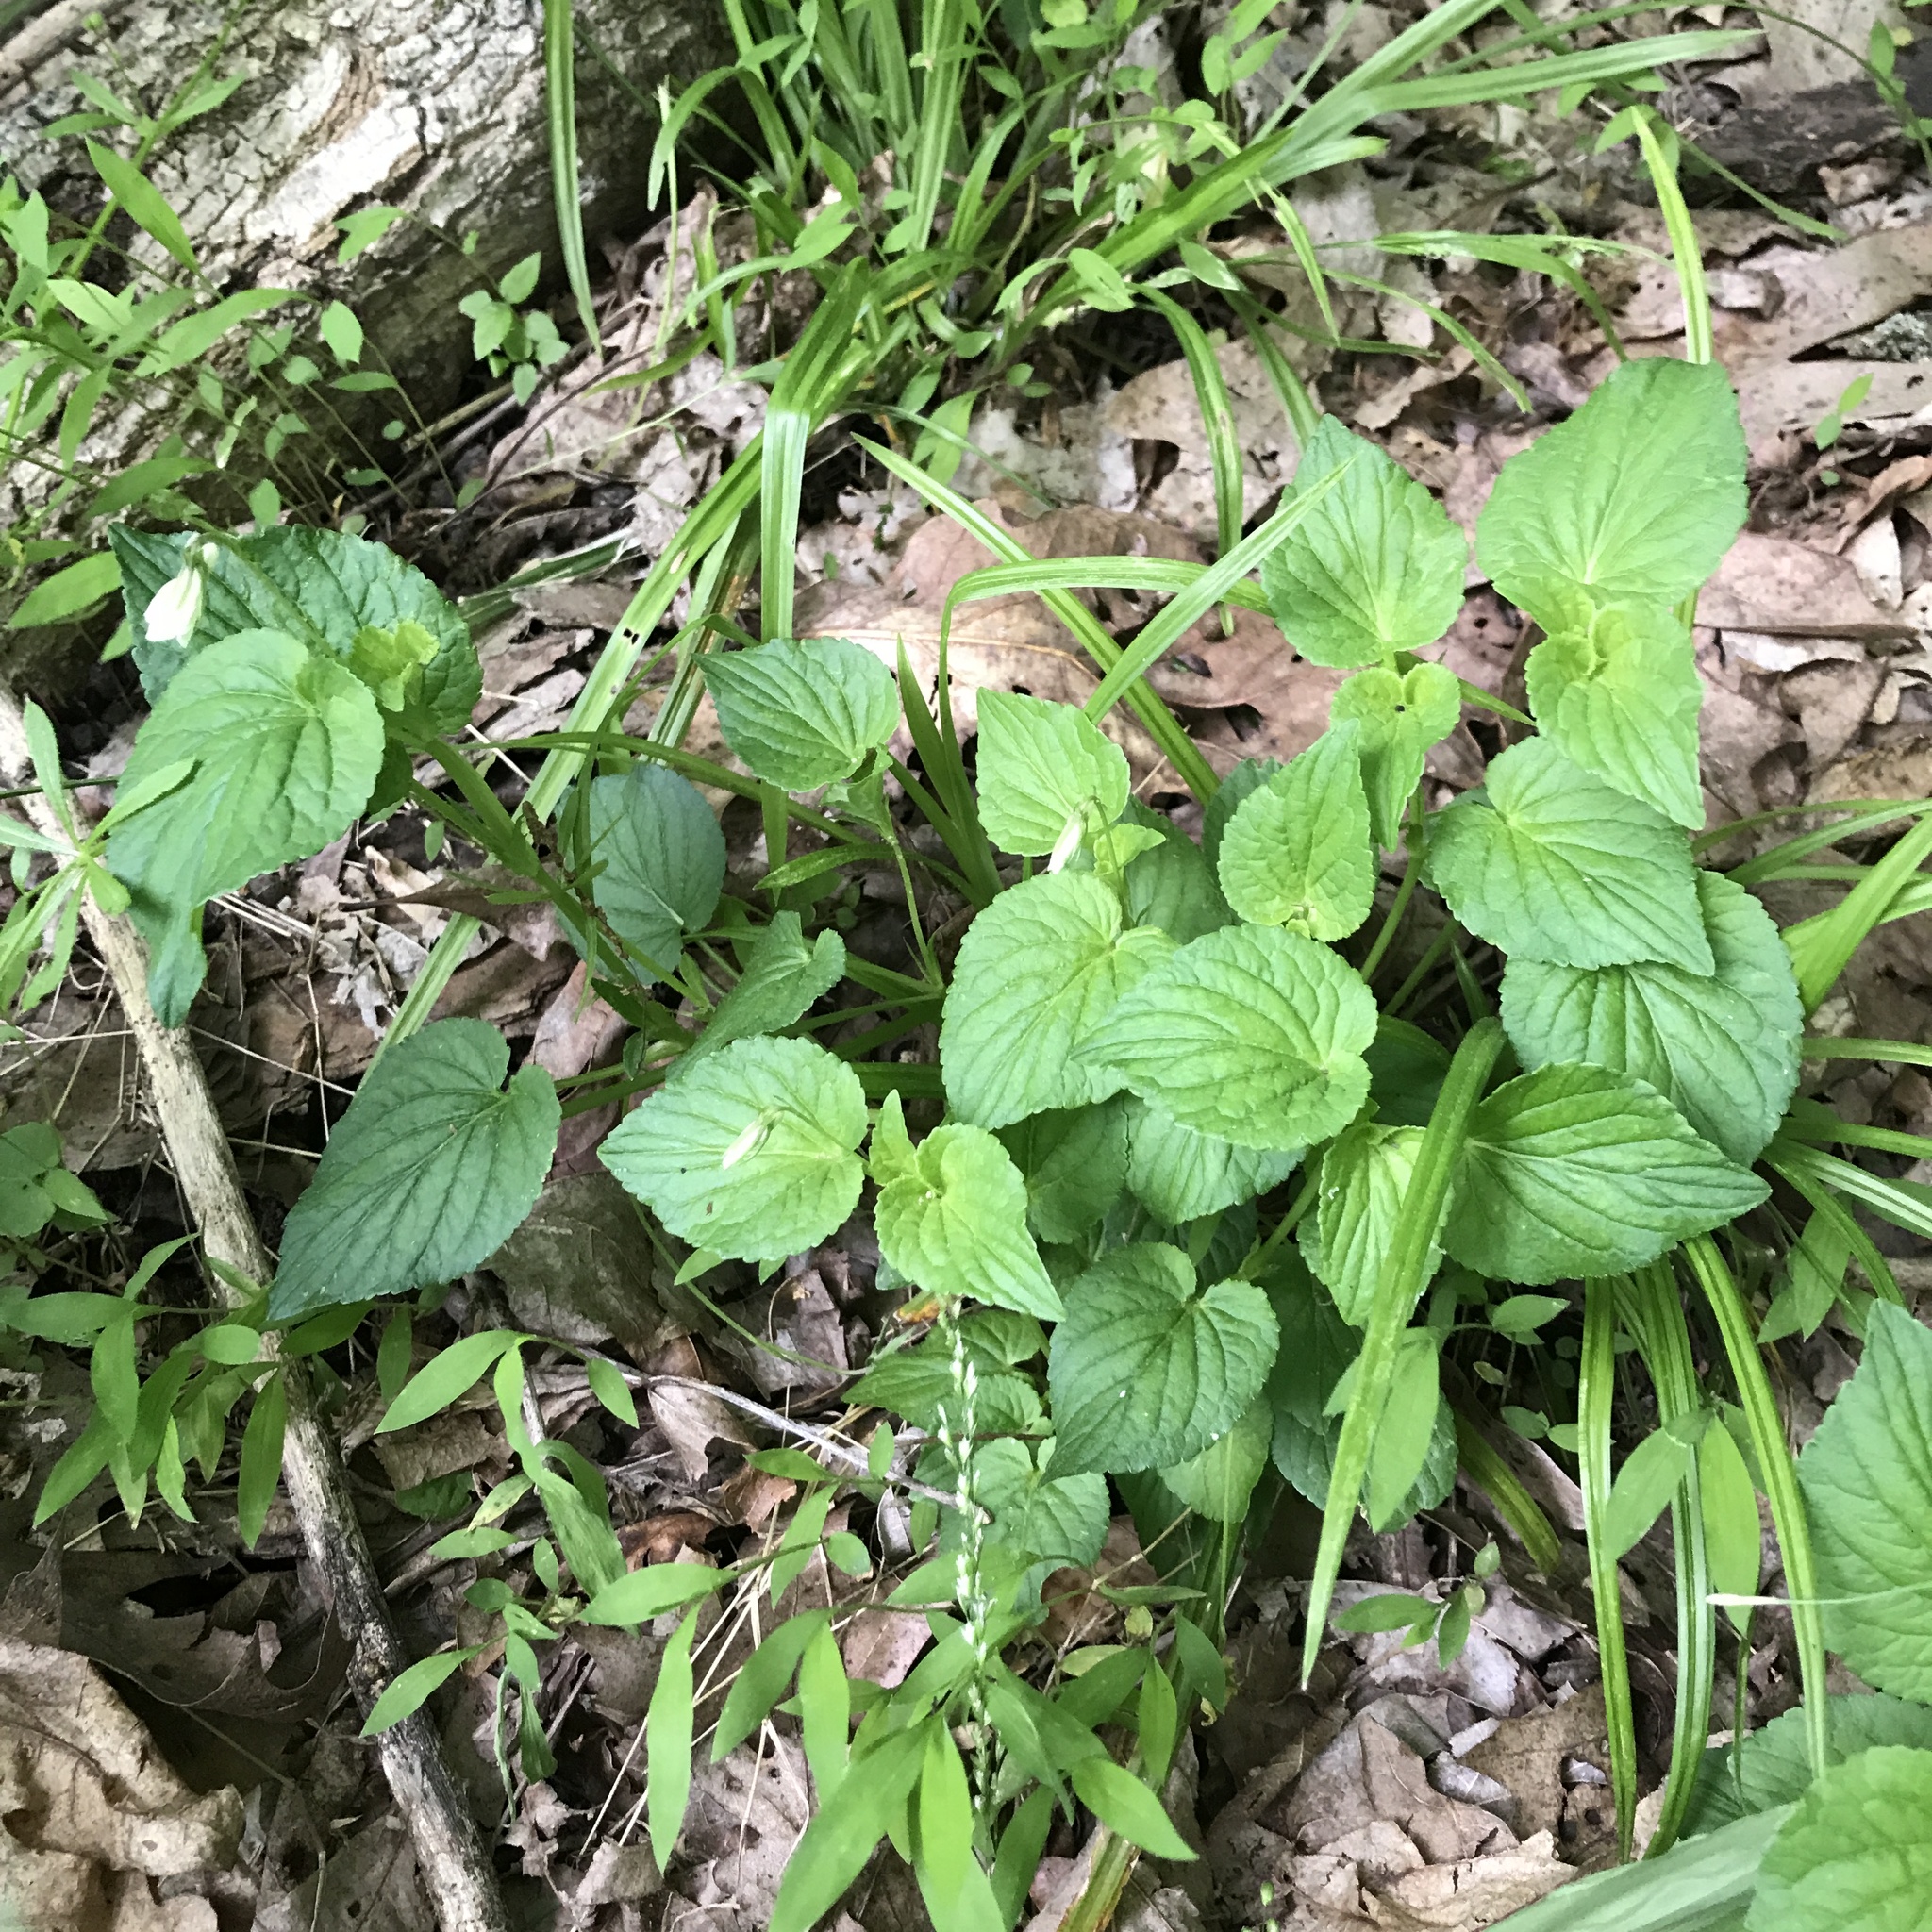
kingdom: Plantae
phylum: Tracheophyta
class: Magnoliopsida
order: Malpighiales
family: Violaceae
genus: Viola
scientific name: Viola striata
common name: Cream violet
